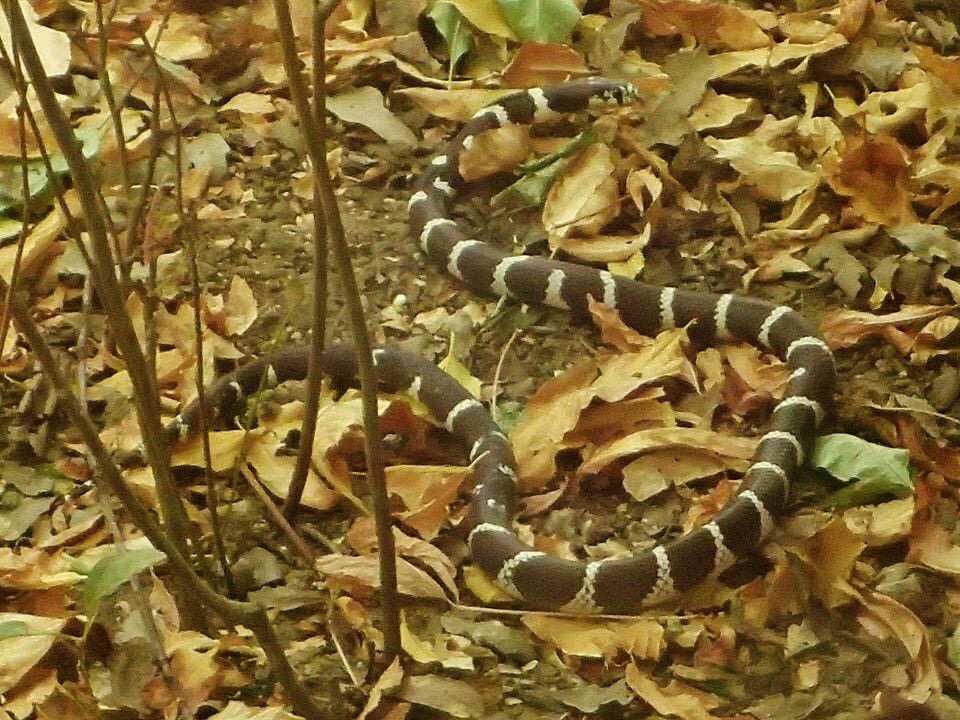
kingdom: Animalia
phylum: Chordata
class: Squamata
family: Colubridae
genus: Lampropeltis
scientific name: Lampropeltis californiae
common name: California kingsnake
